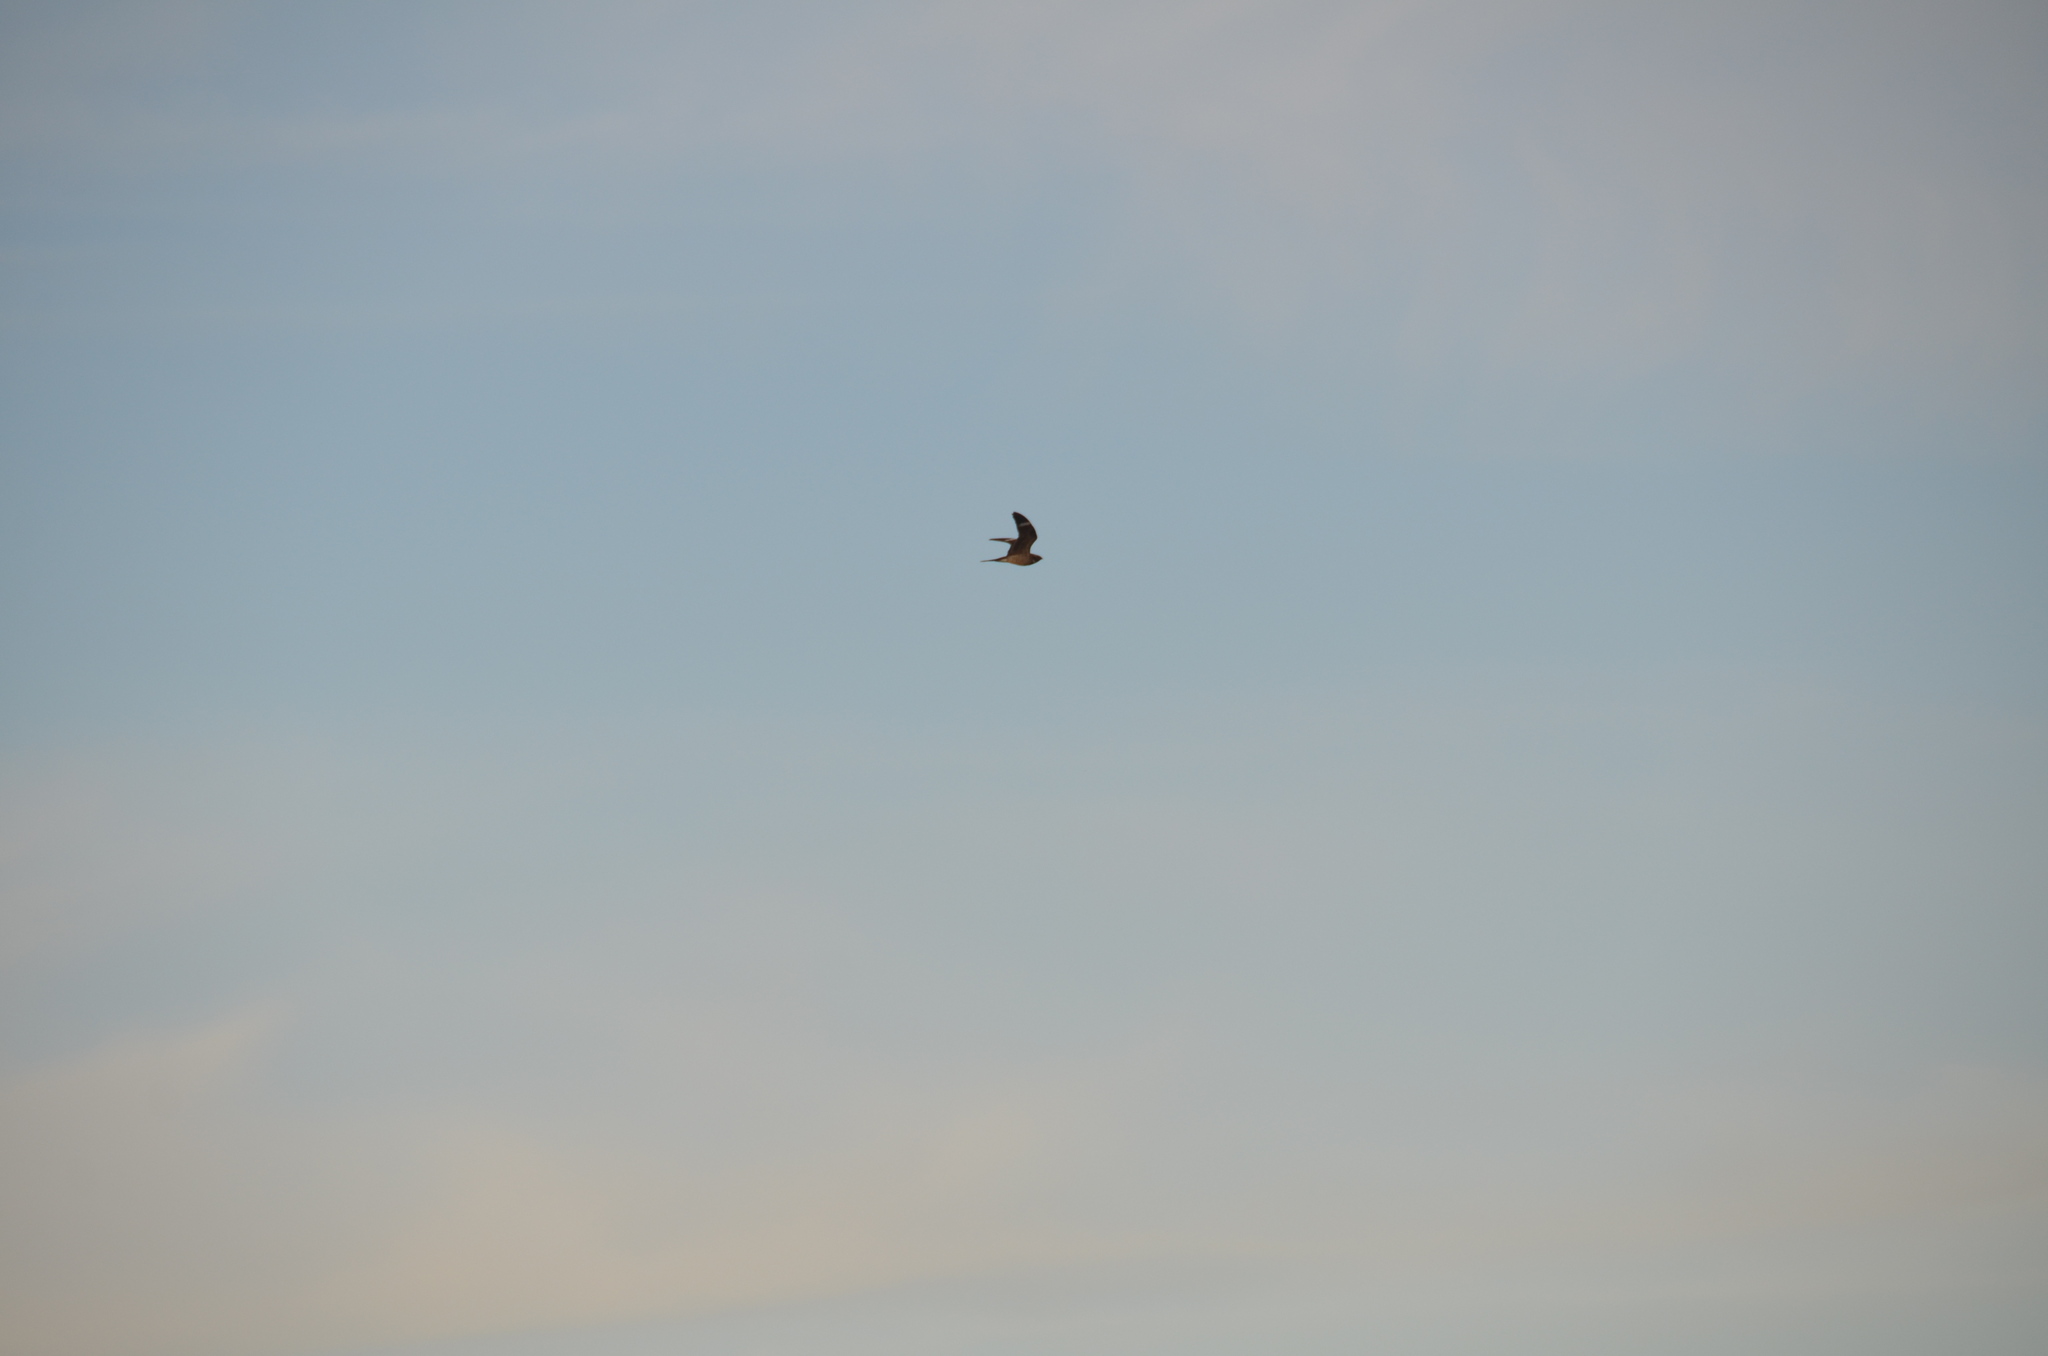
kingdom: Animalia
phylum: Chordata
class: Aves
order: Caprimulgiformes
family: Caprimulgidae
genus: Chordeiles
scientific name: Chordeiles minor
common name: Common nighthawk
